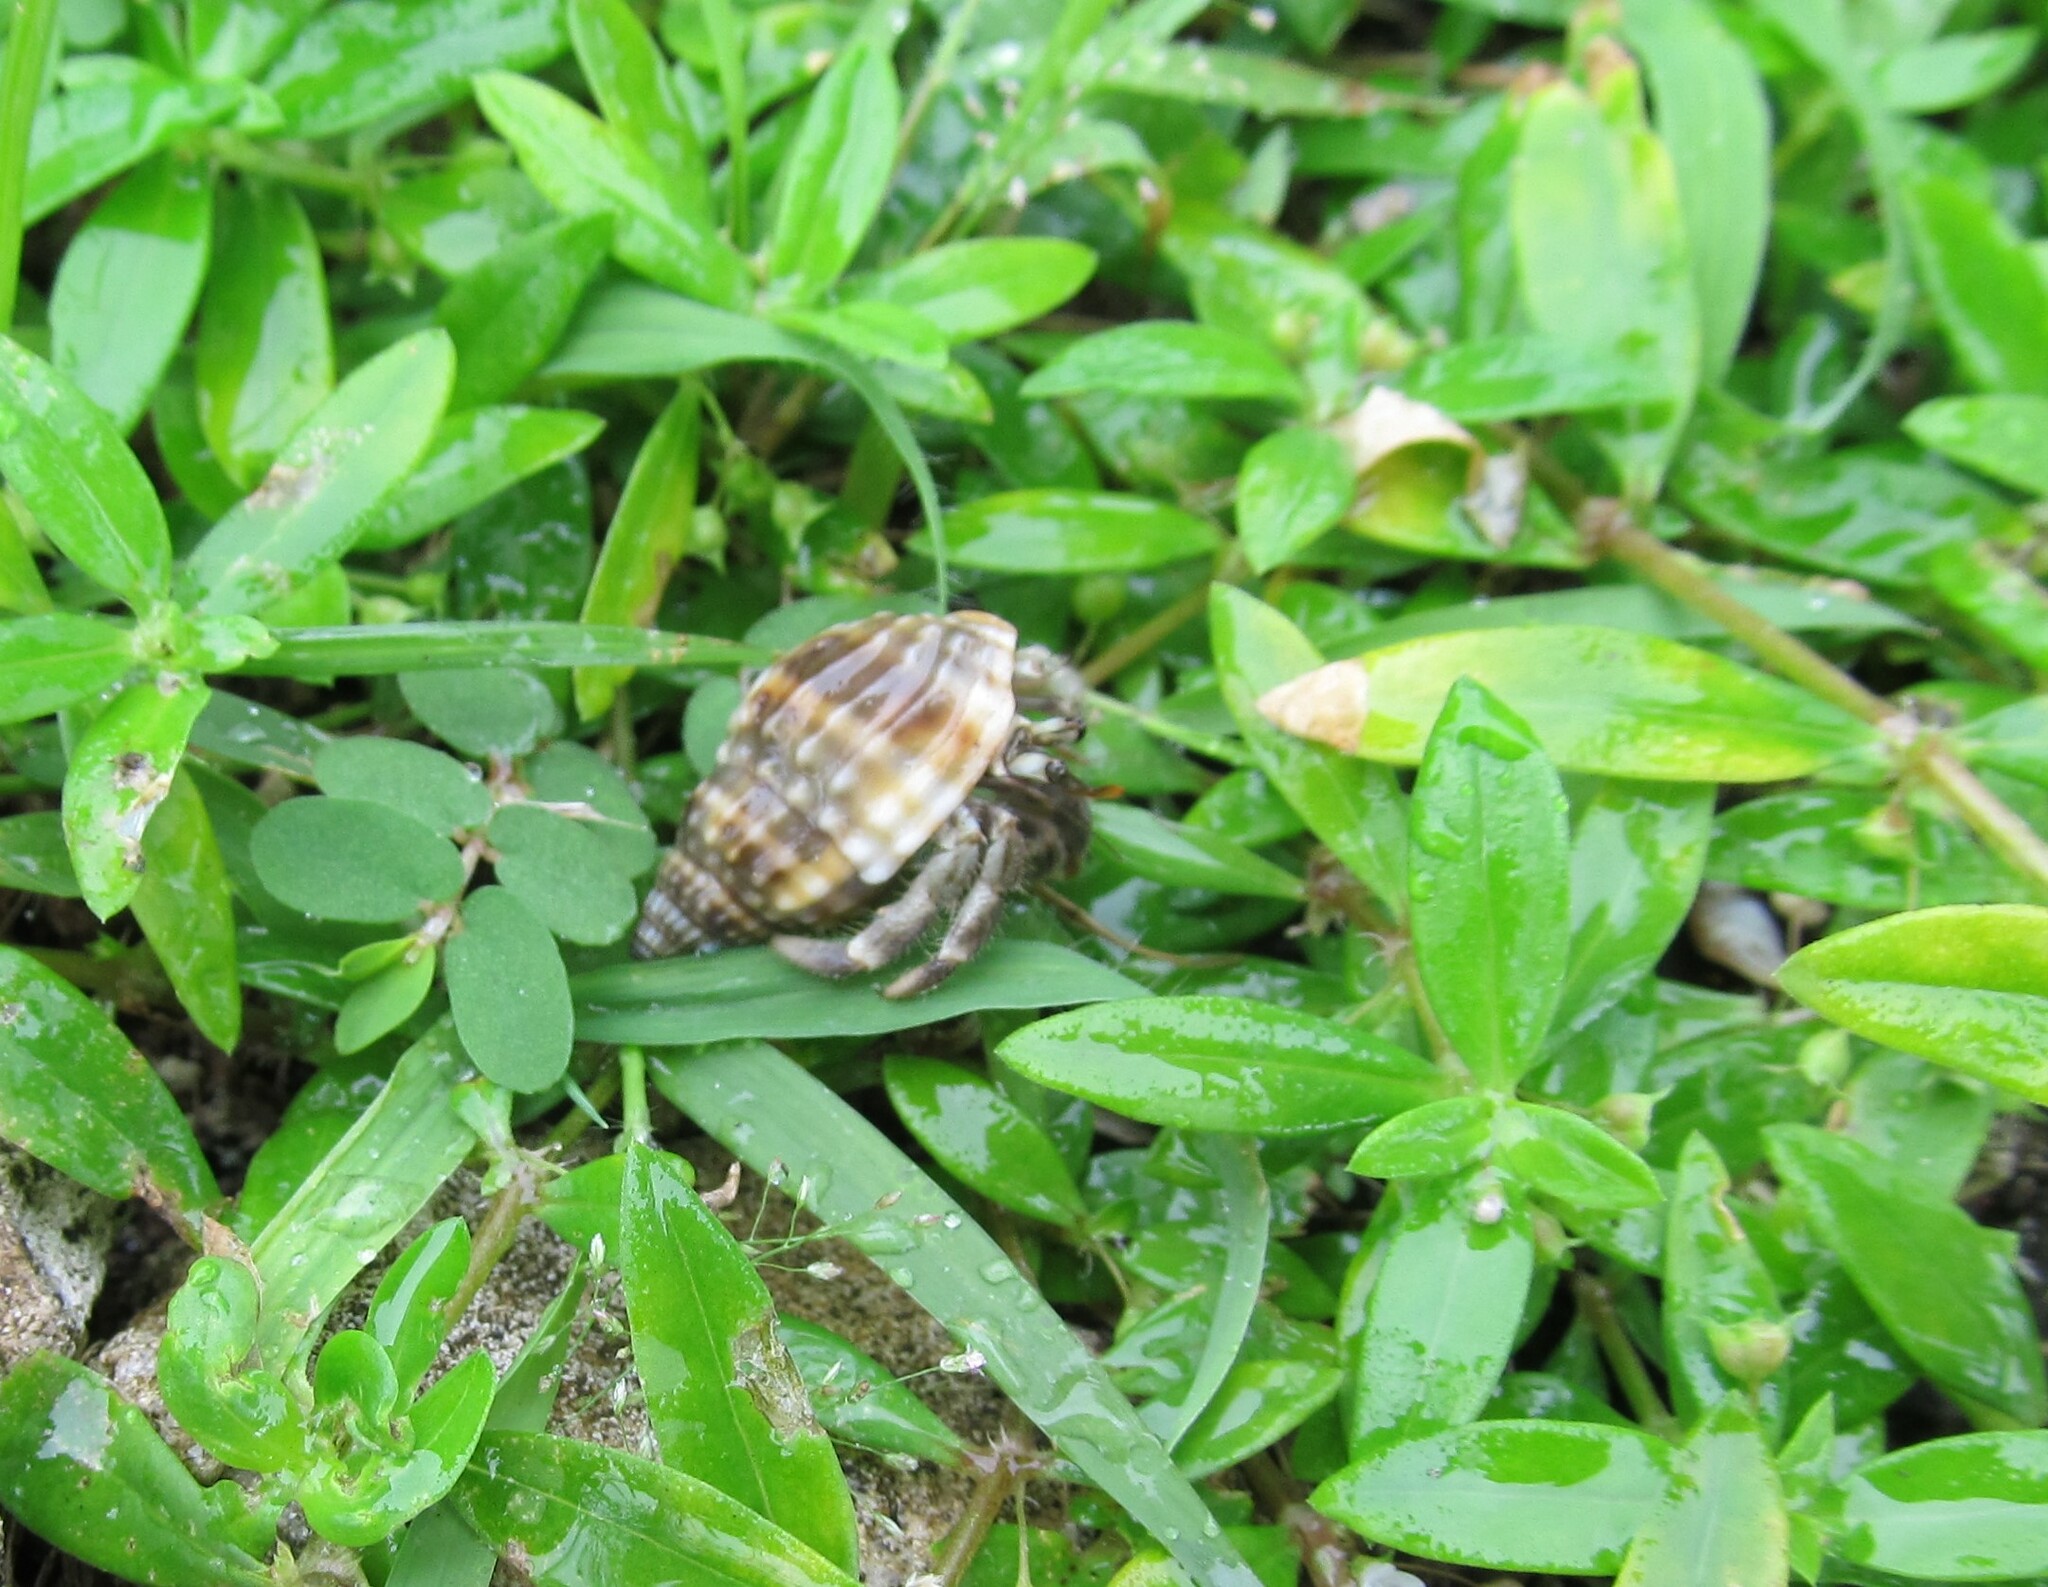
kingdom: Animalia
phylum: Arthropoda
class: Malacostraca
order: Decapoda
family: Coenobitidae
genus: Coenobita
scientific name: Coenobita rugosus
